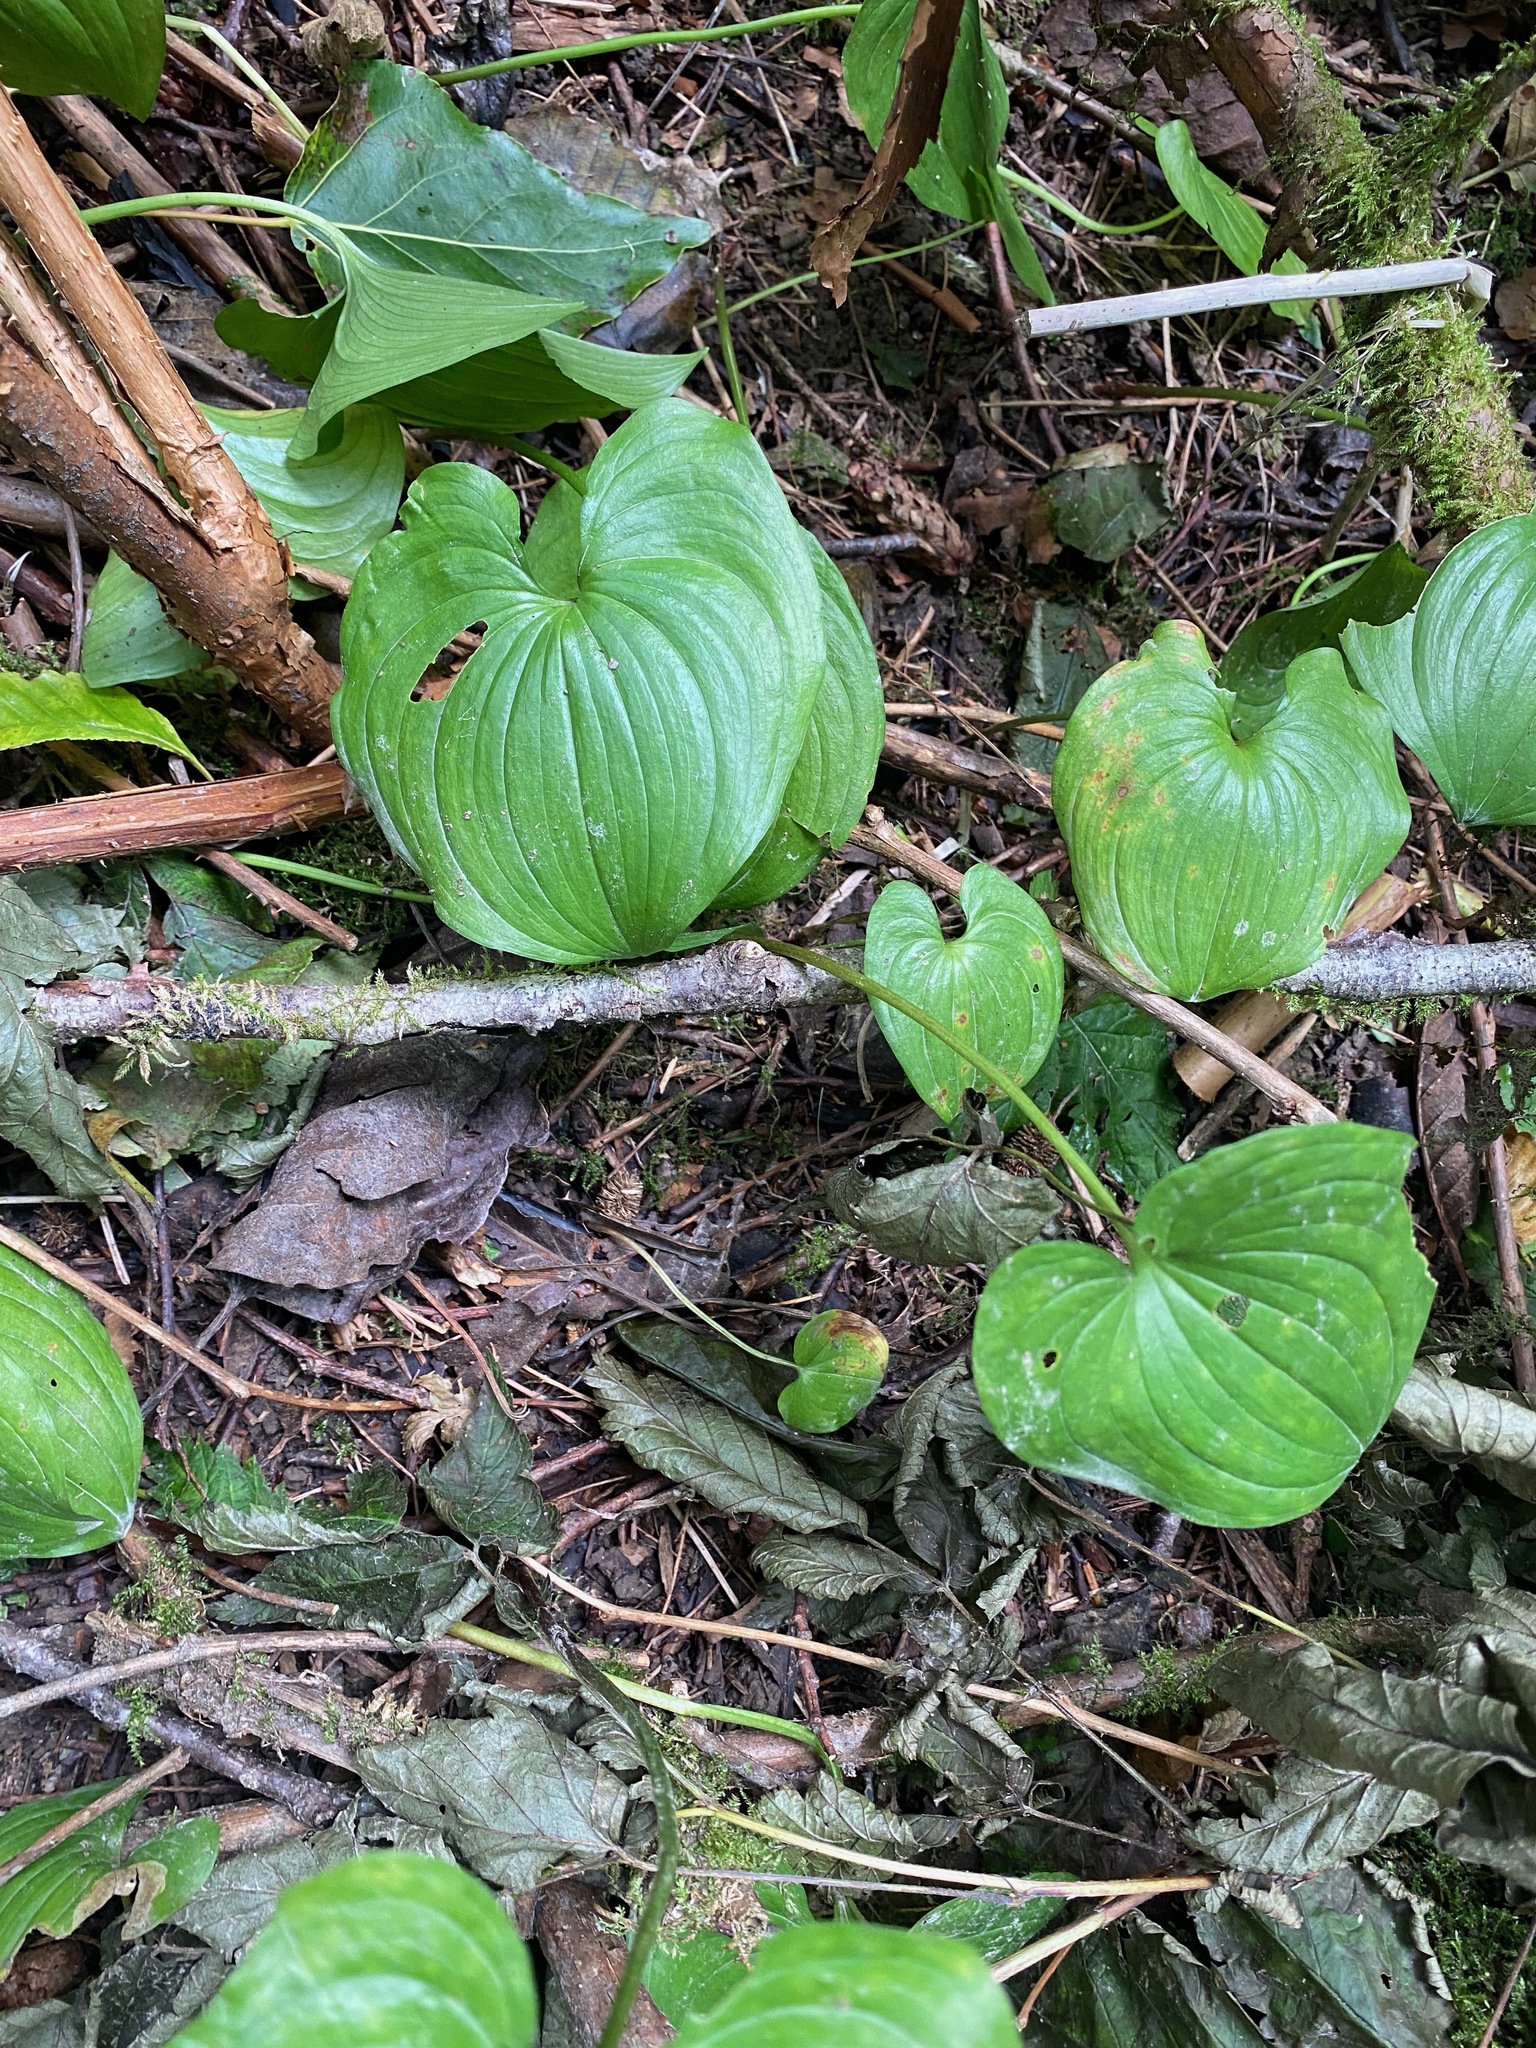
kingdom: Plantae
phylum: Tracheophyta
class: Liliopsida
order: Asparagales
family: Asparagaceae
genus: Maianthemum
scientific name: Maianthemum dilatatum
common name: False lily-of-the-valley
